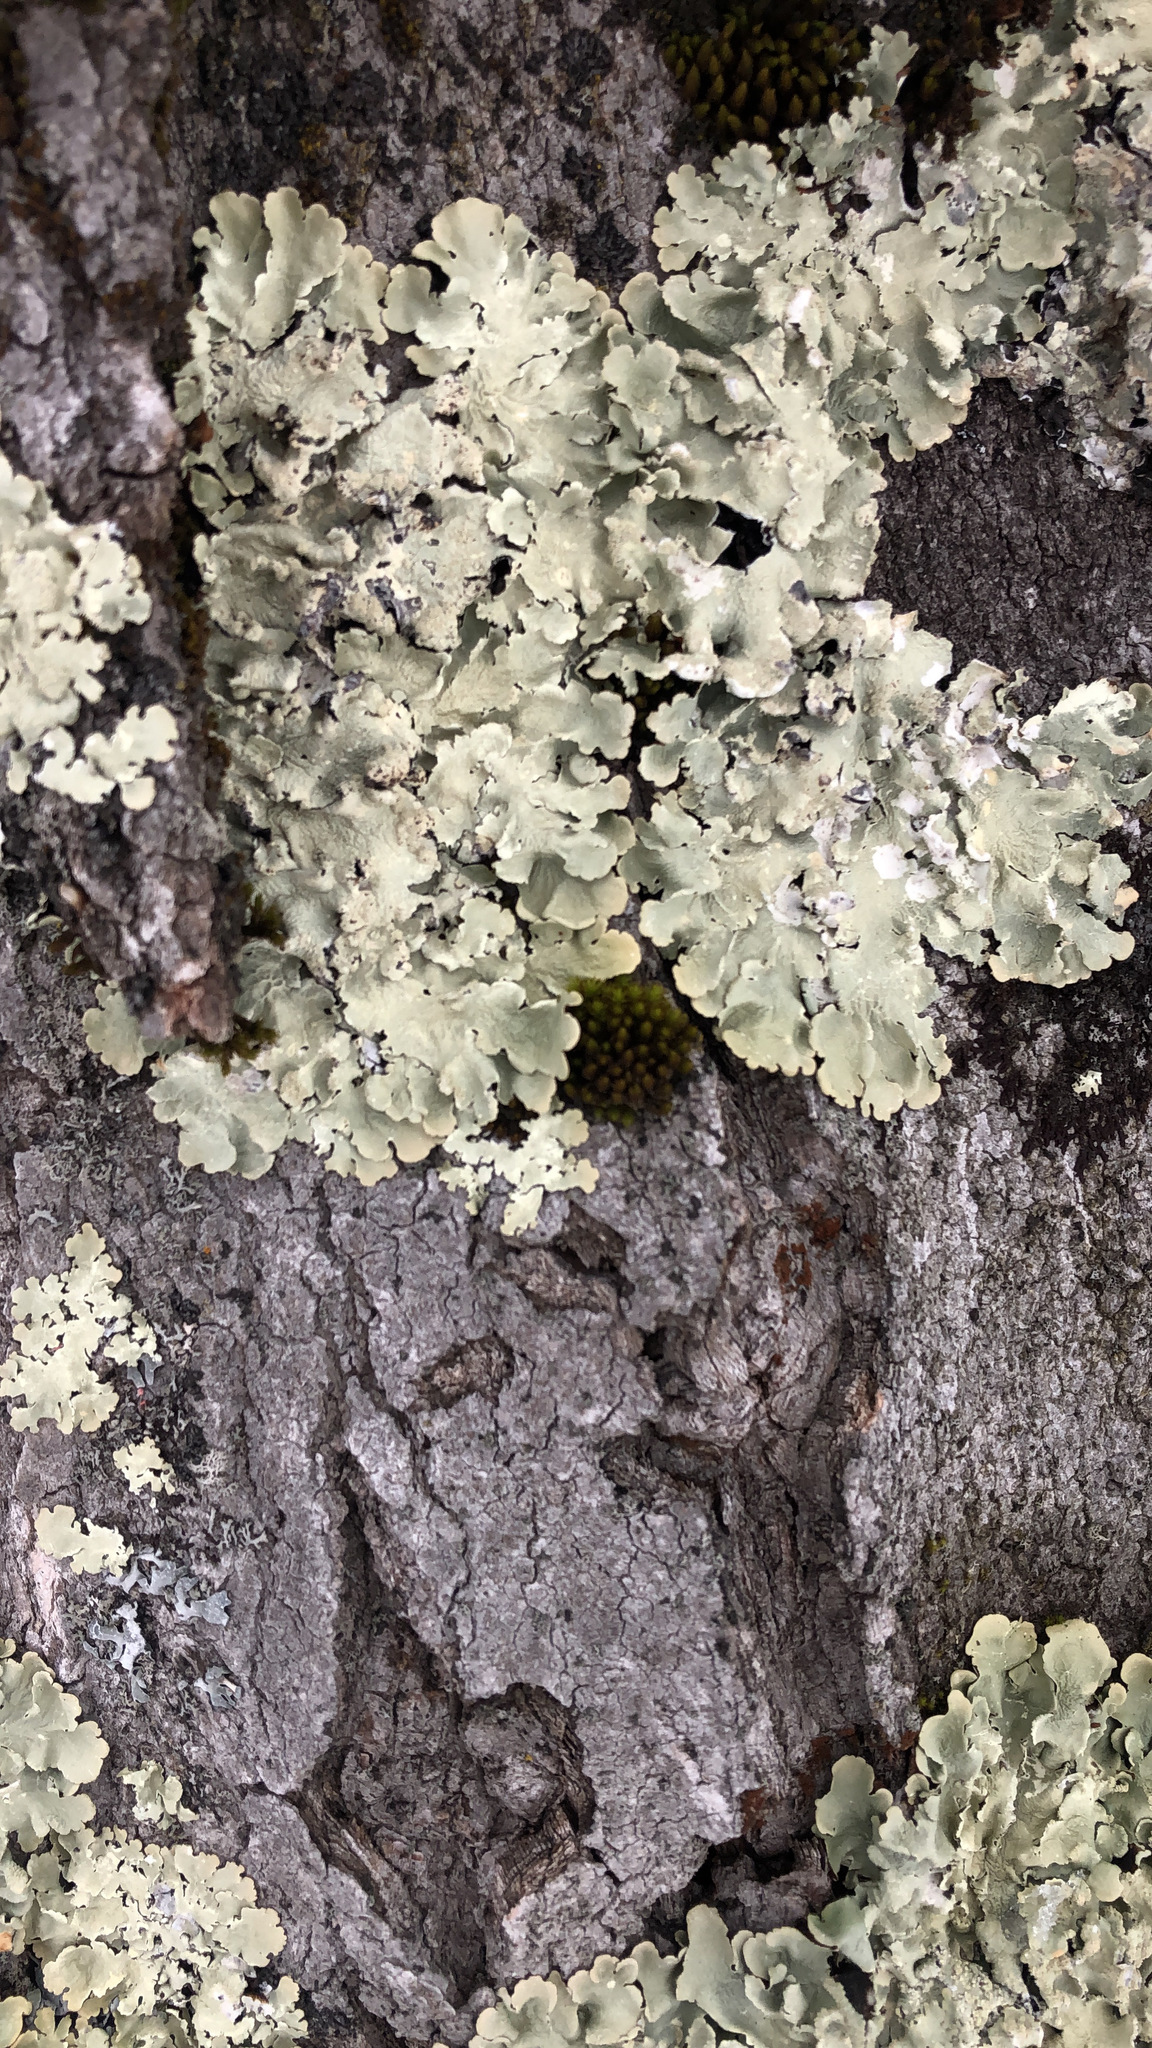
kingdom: Fungi
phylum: Ascomycota
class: Lecanoromycetes
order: Lecanorales
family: Parmeliaceae
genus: Flavoparmelia
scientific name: Flavoparmelia caperata
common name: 40-mile per hour lichen
